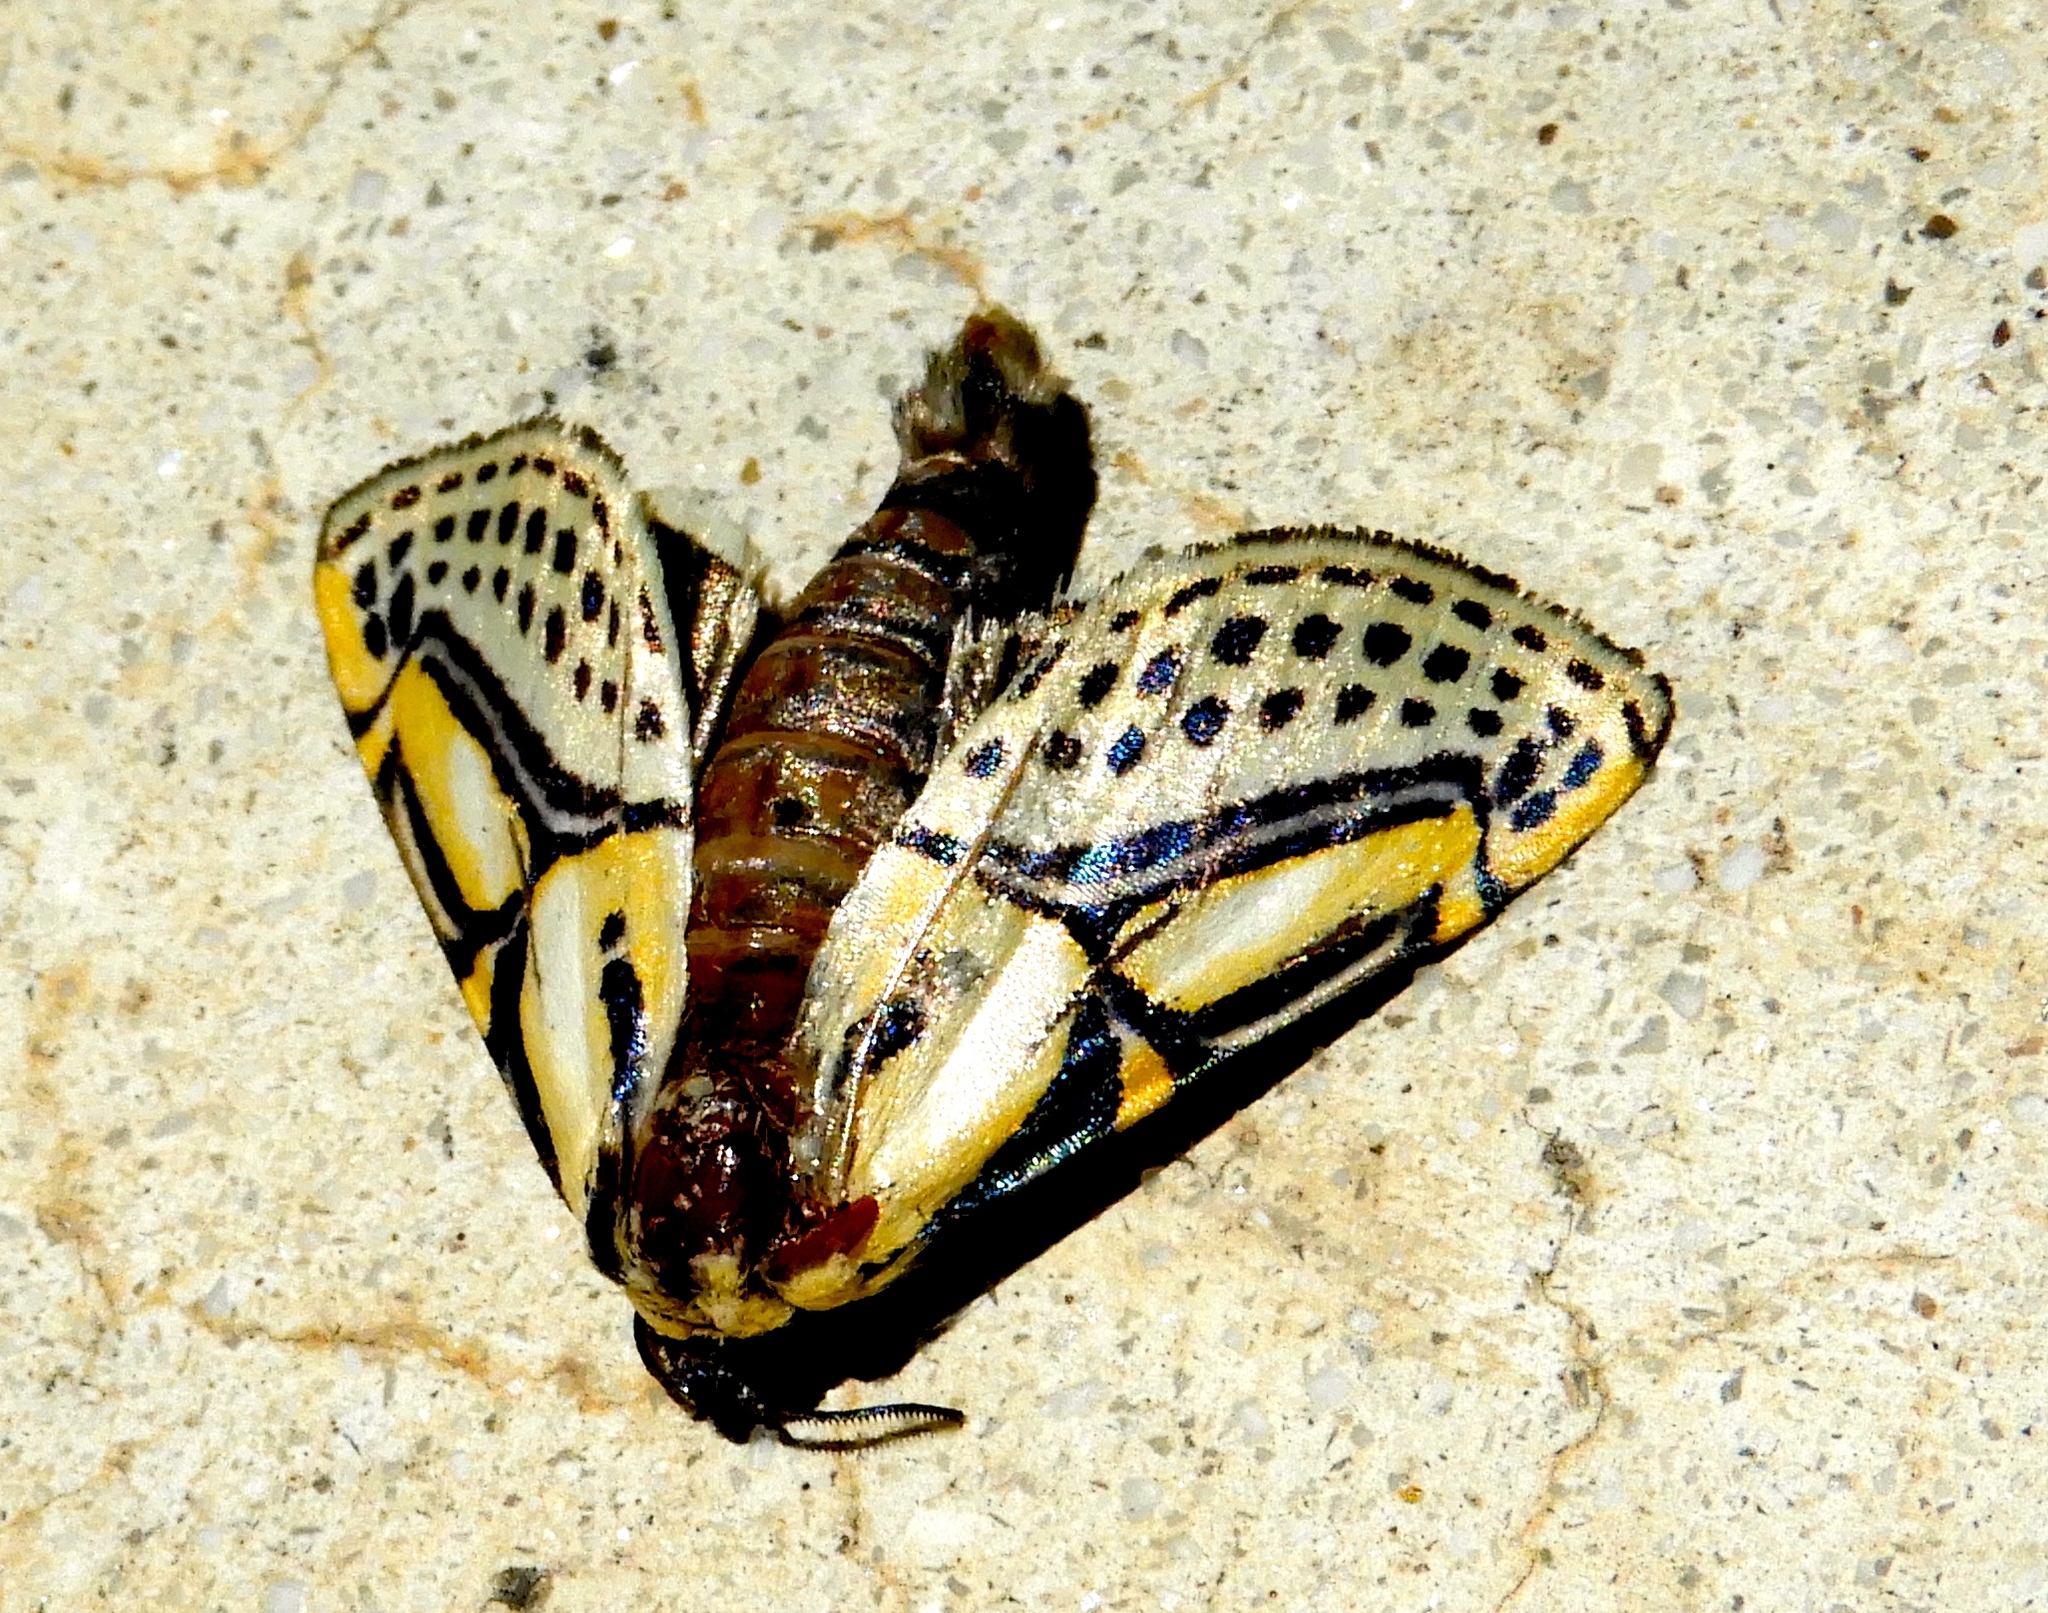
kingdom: Animalia
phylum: Arthropoda
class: Insecta
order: Lepidoptera
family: Erebidae
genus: Diphthera
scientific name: Diphthera festiva
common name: Hieroglyphic moth
